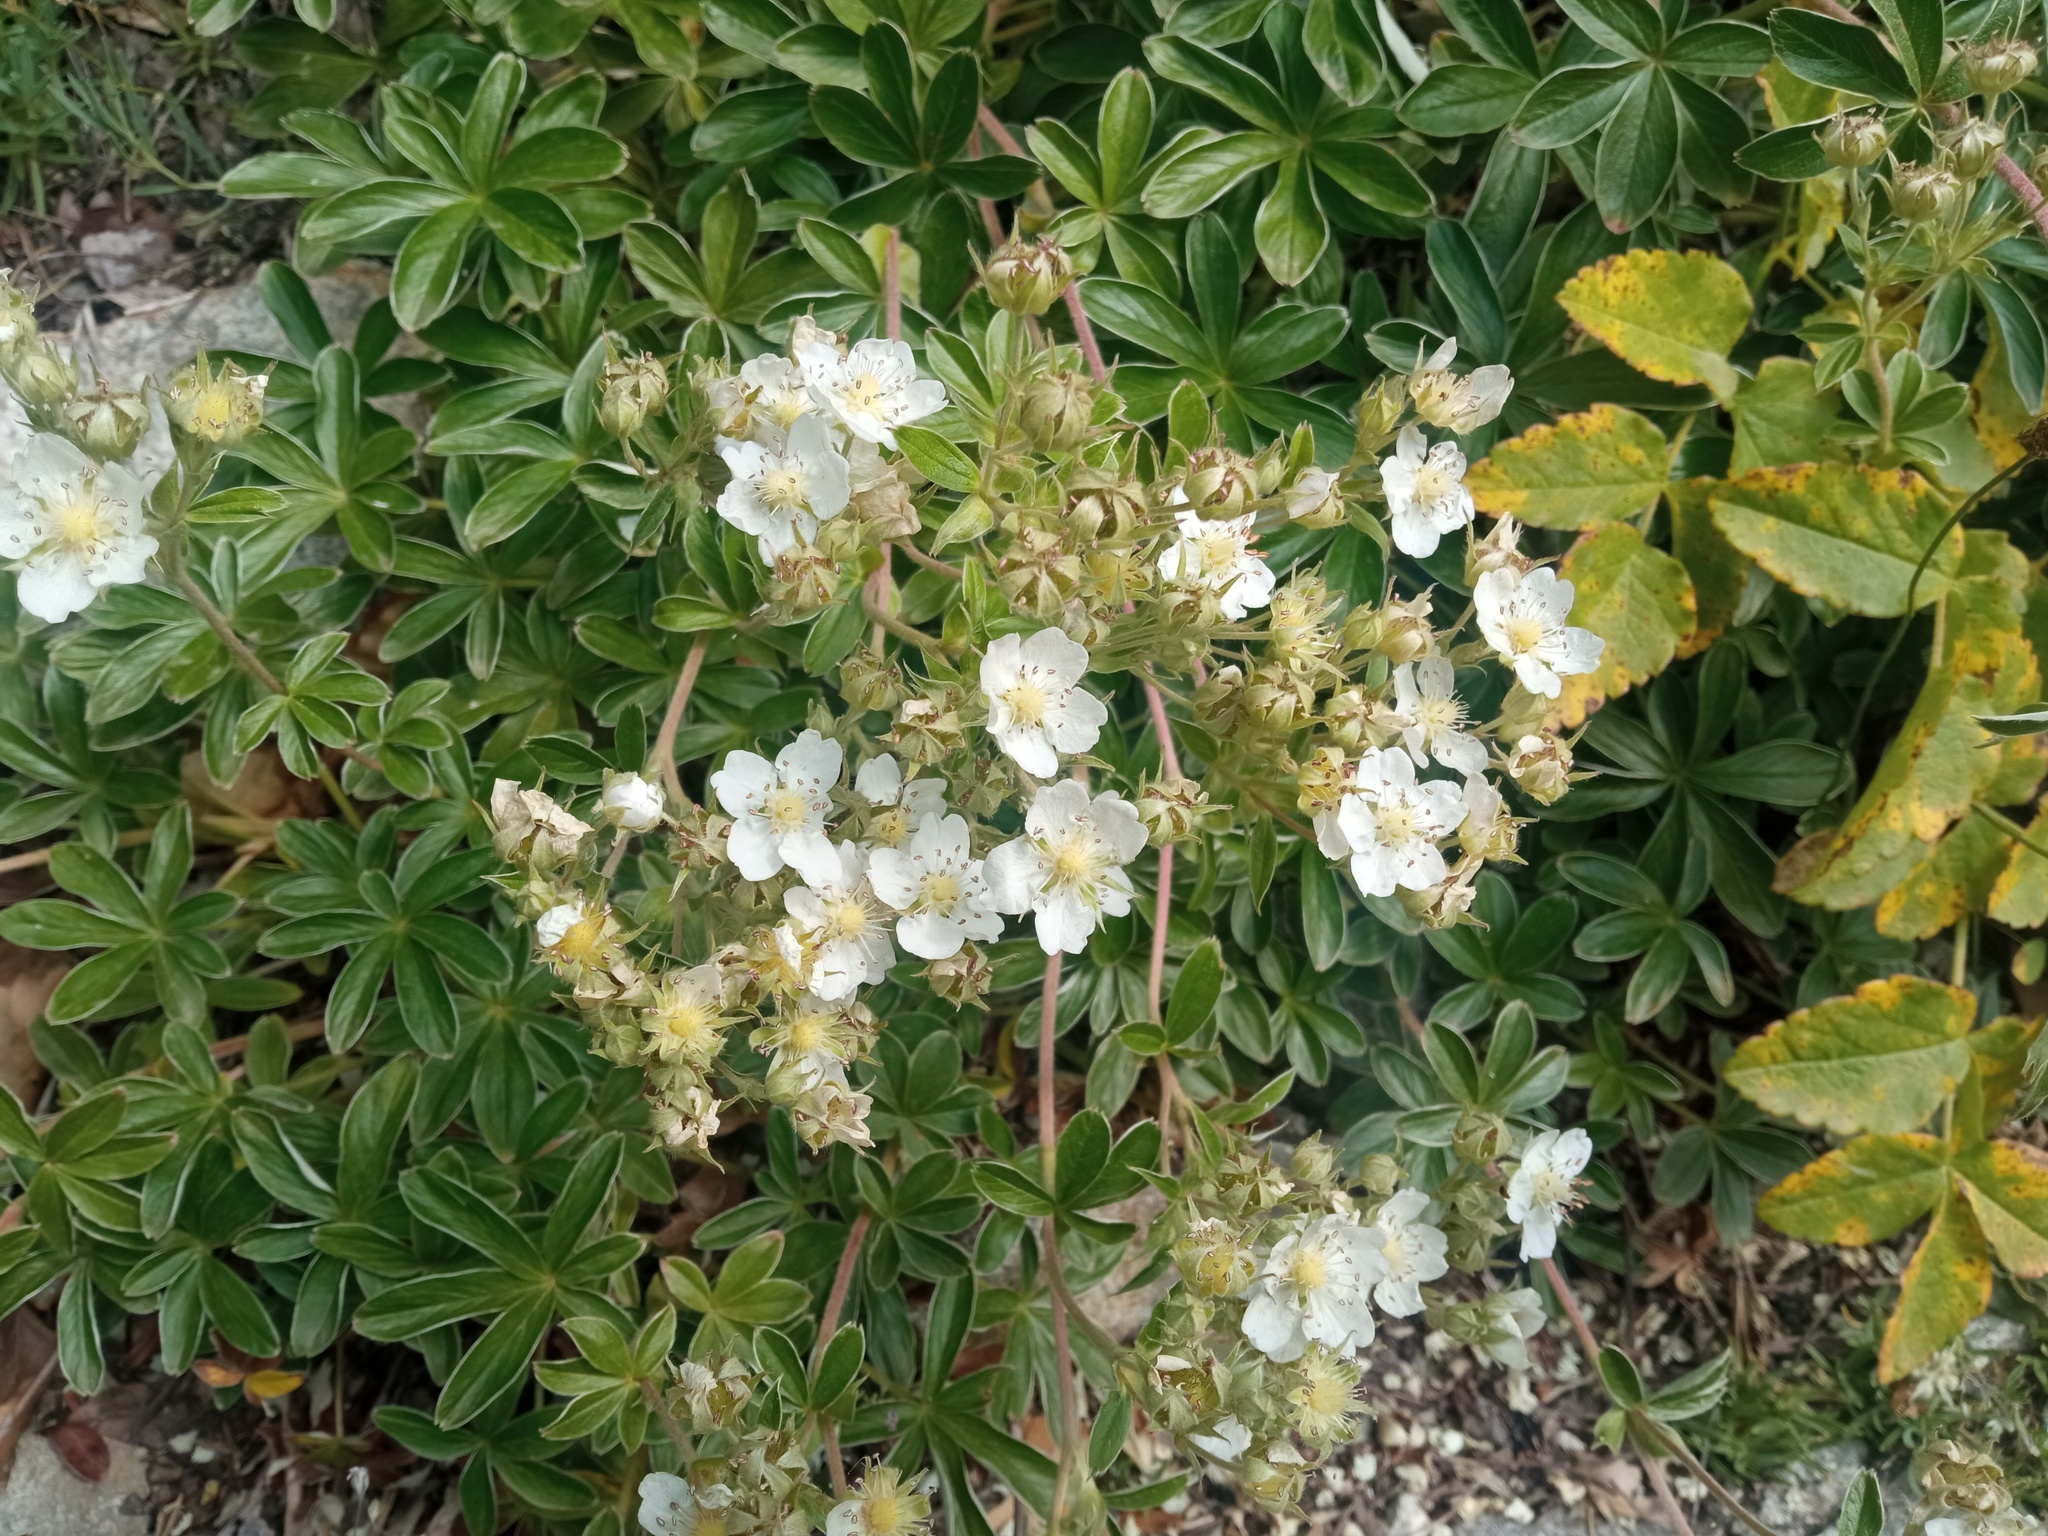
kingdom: Plantae
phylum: Tracheophyta
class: Magnoliopsida
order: Rosales
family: Rosaceae
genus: Potentilla
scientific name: Potentilla alchimilloides
